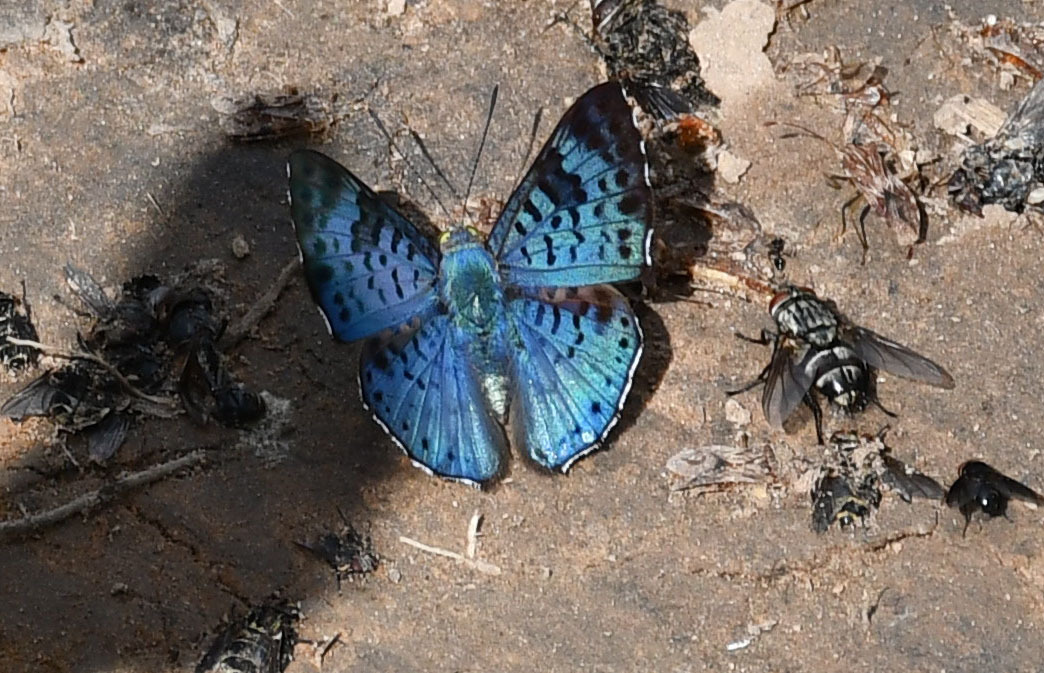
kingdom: Animalia
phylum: Arthropoda
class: Insecta
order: Lepidoptera
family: Riodinidae
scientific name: Riodinidae
